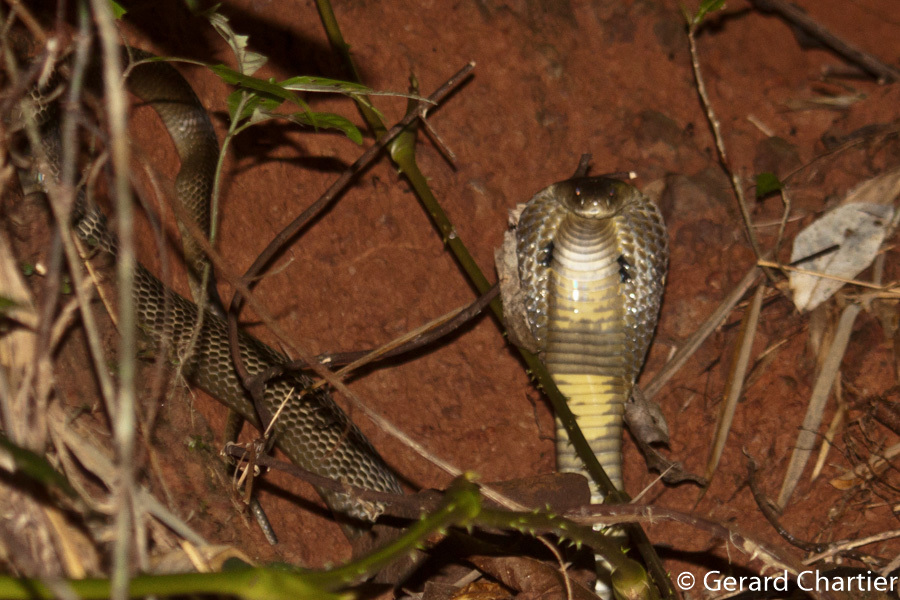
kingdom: Animalia
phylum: Chordata
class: Squamata
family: Elapidae
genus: Naja
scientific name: Naja siamensis
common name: Indo-chinese spitting cobra
